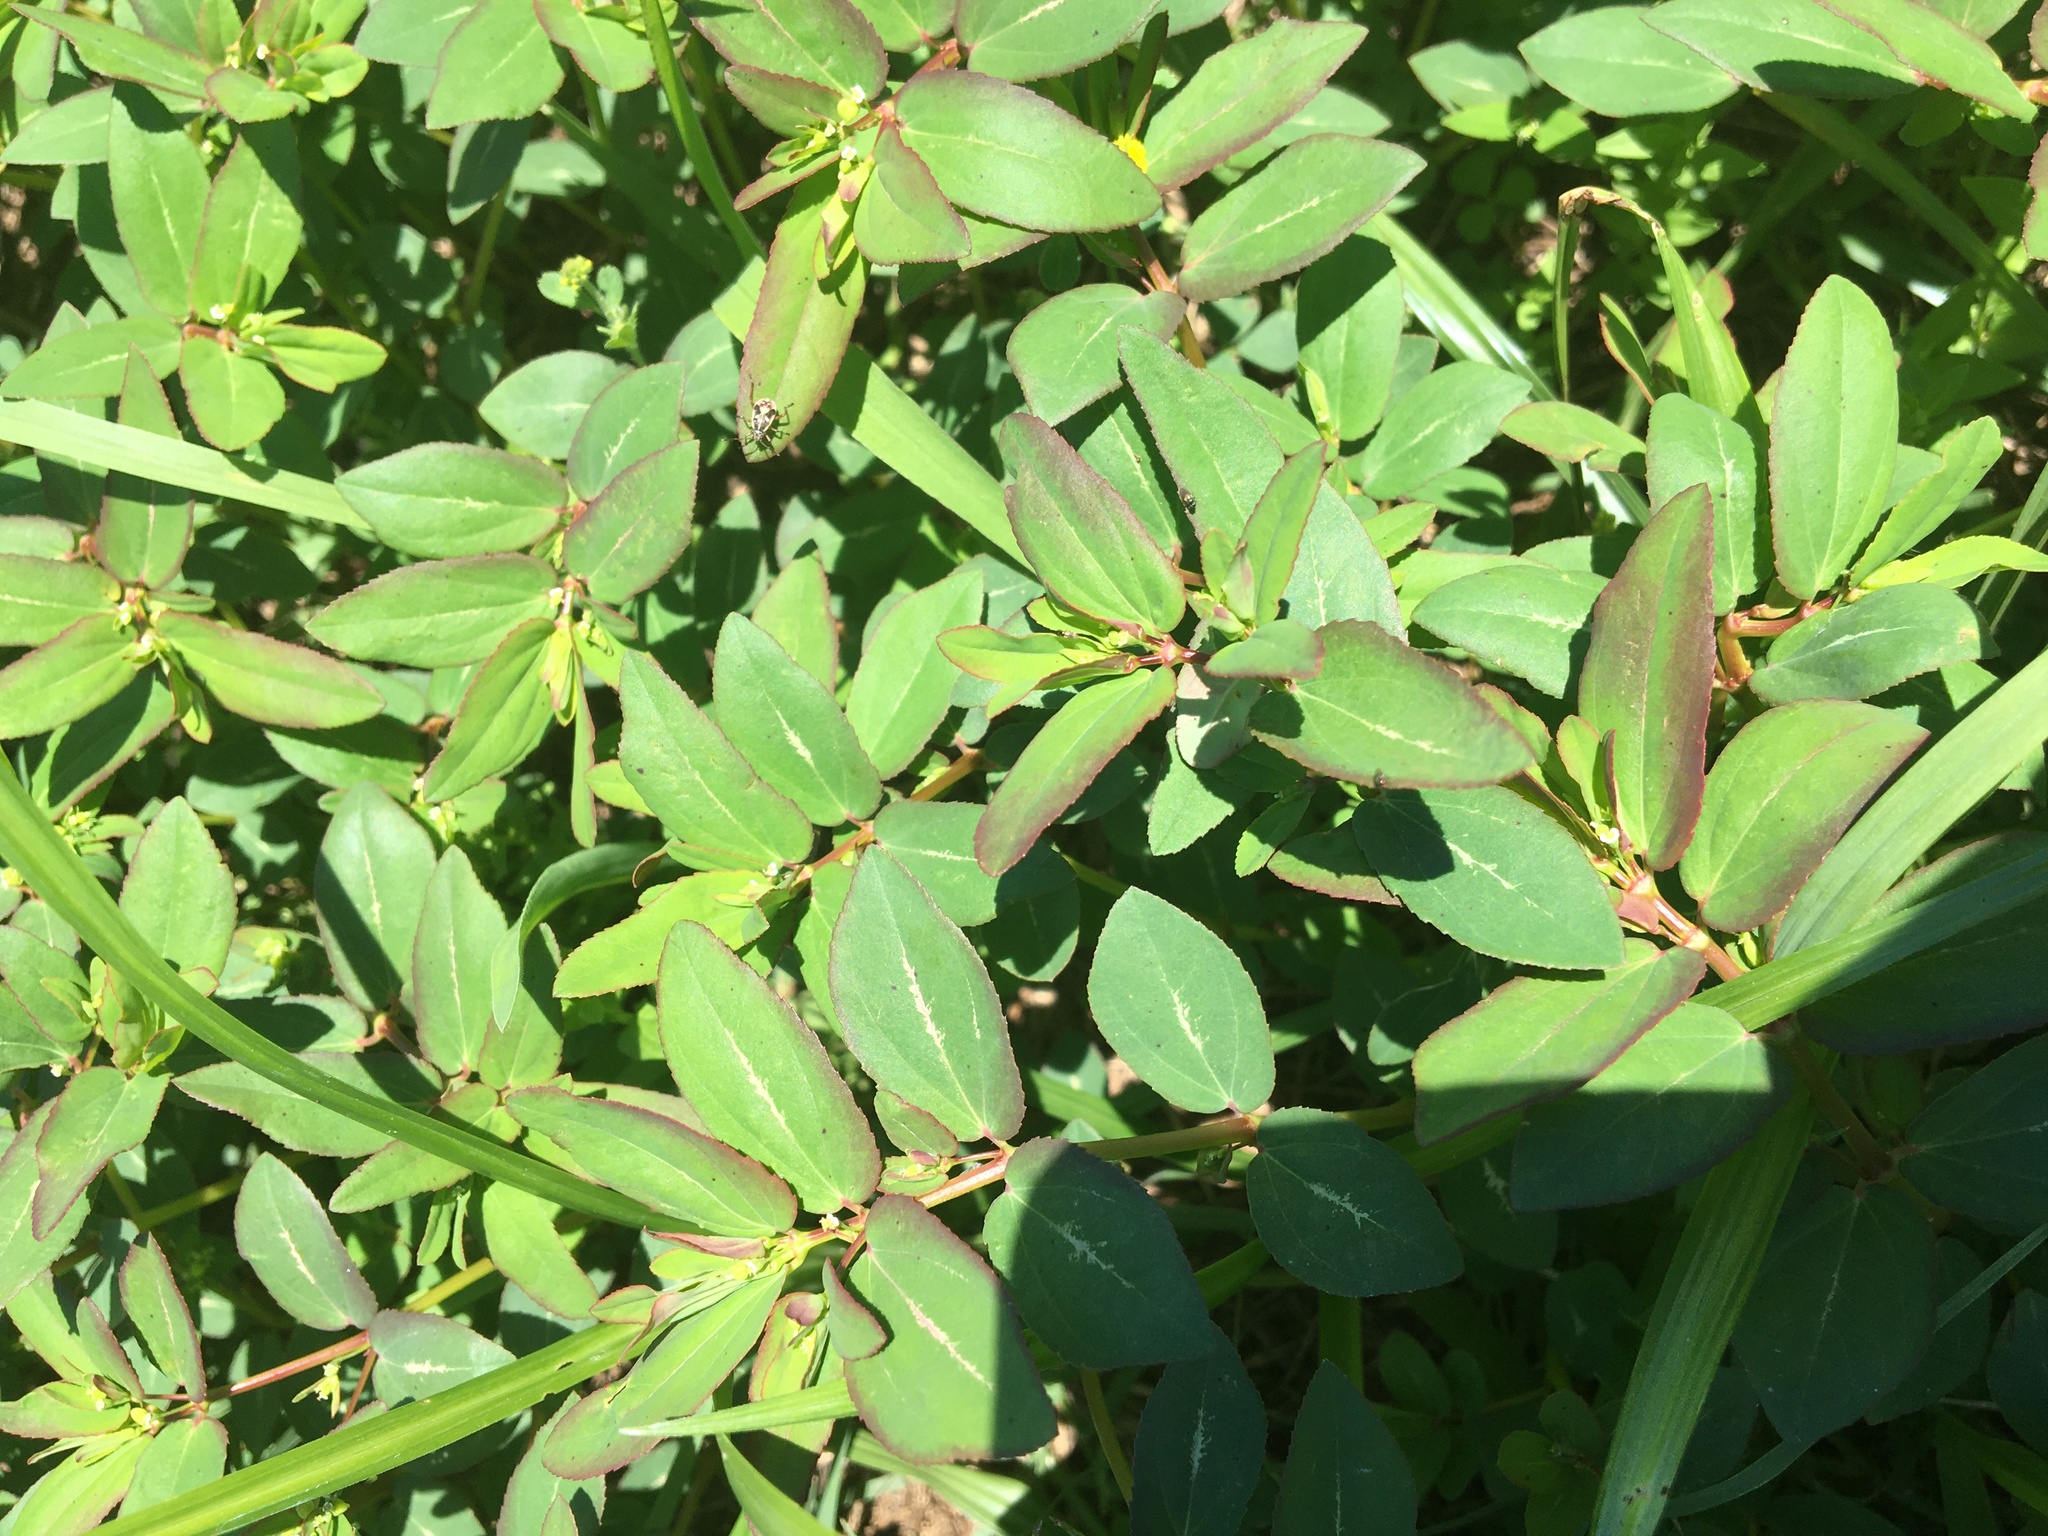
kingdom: Plantae
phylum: Tracheophyta
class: Magnoliopsida
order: Malpighiales
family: Euphorbiaceae
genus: Euphorbia
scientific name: Euphorbia hyssopifolia
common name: Hyssopleaf sandmat
